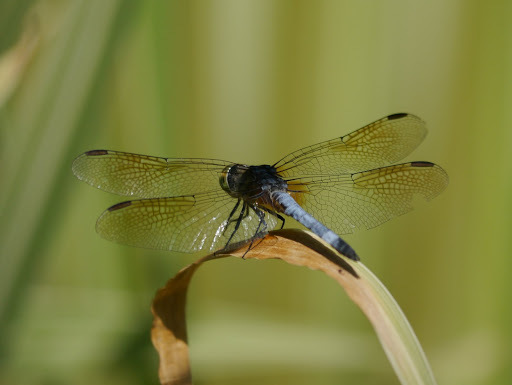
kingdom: Animalia
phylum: Arthropoda
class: Insecta
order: Odonata
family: Libellulidae
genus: Pachydiplax
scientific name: Pachydiplax longipennis
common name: Blue dasher
